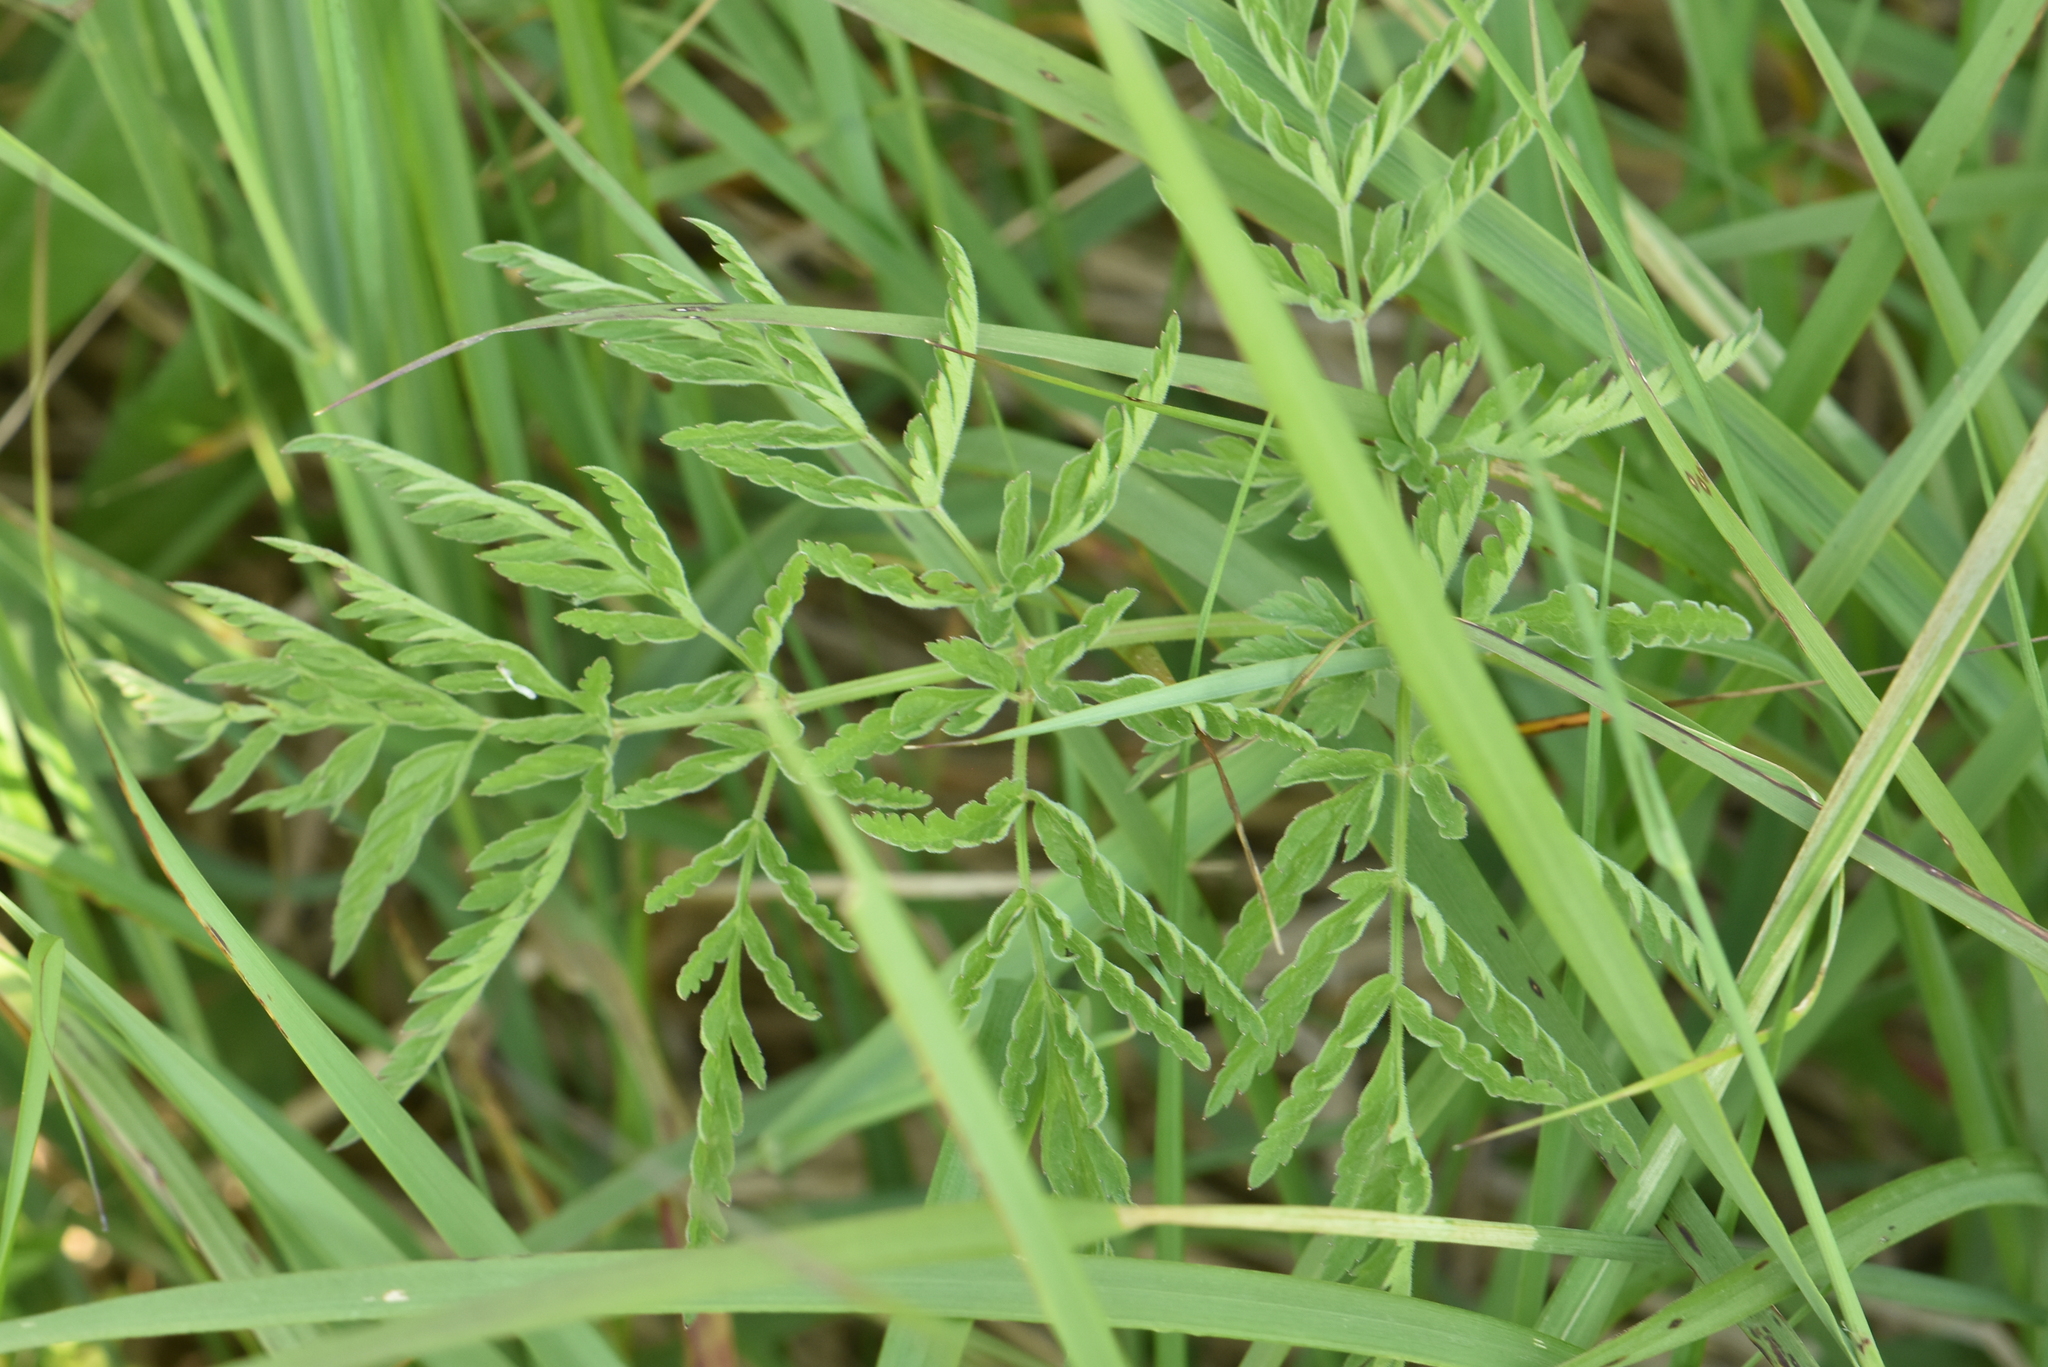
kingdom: Plantae
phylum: Tracheophyta
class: Magnoliopsida
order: Apiales
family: Apiaceae
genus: Anthriscus
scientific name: Anthriscus sylvestris
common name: Cow parsley
